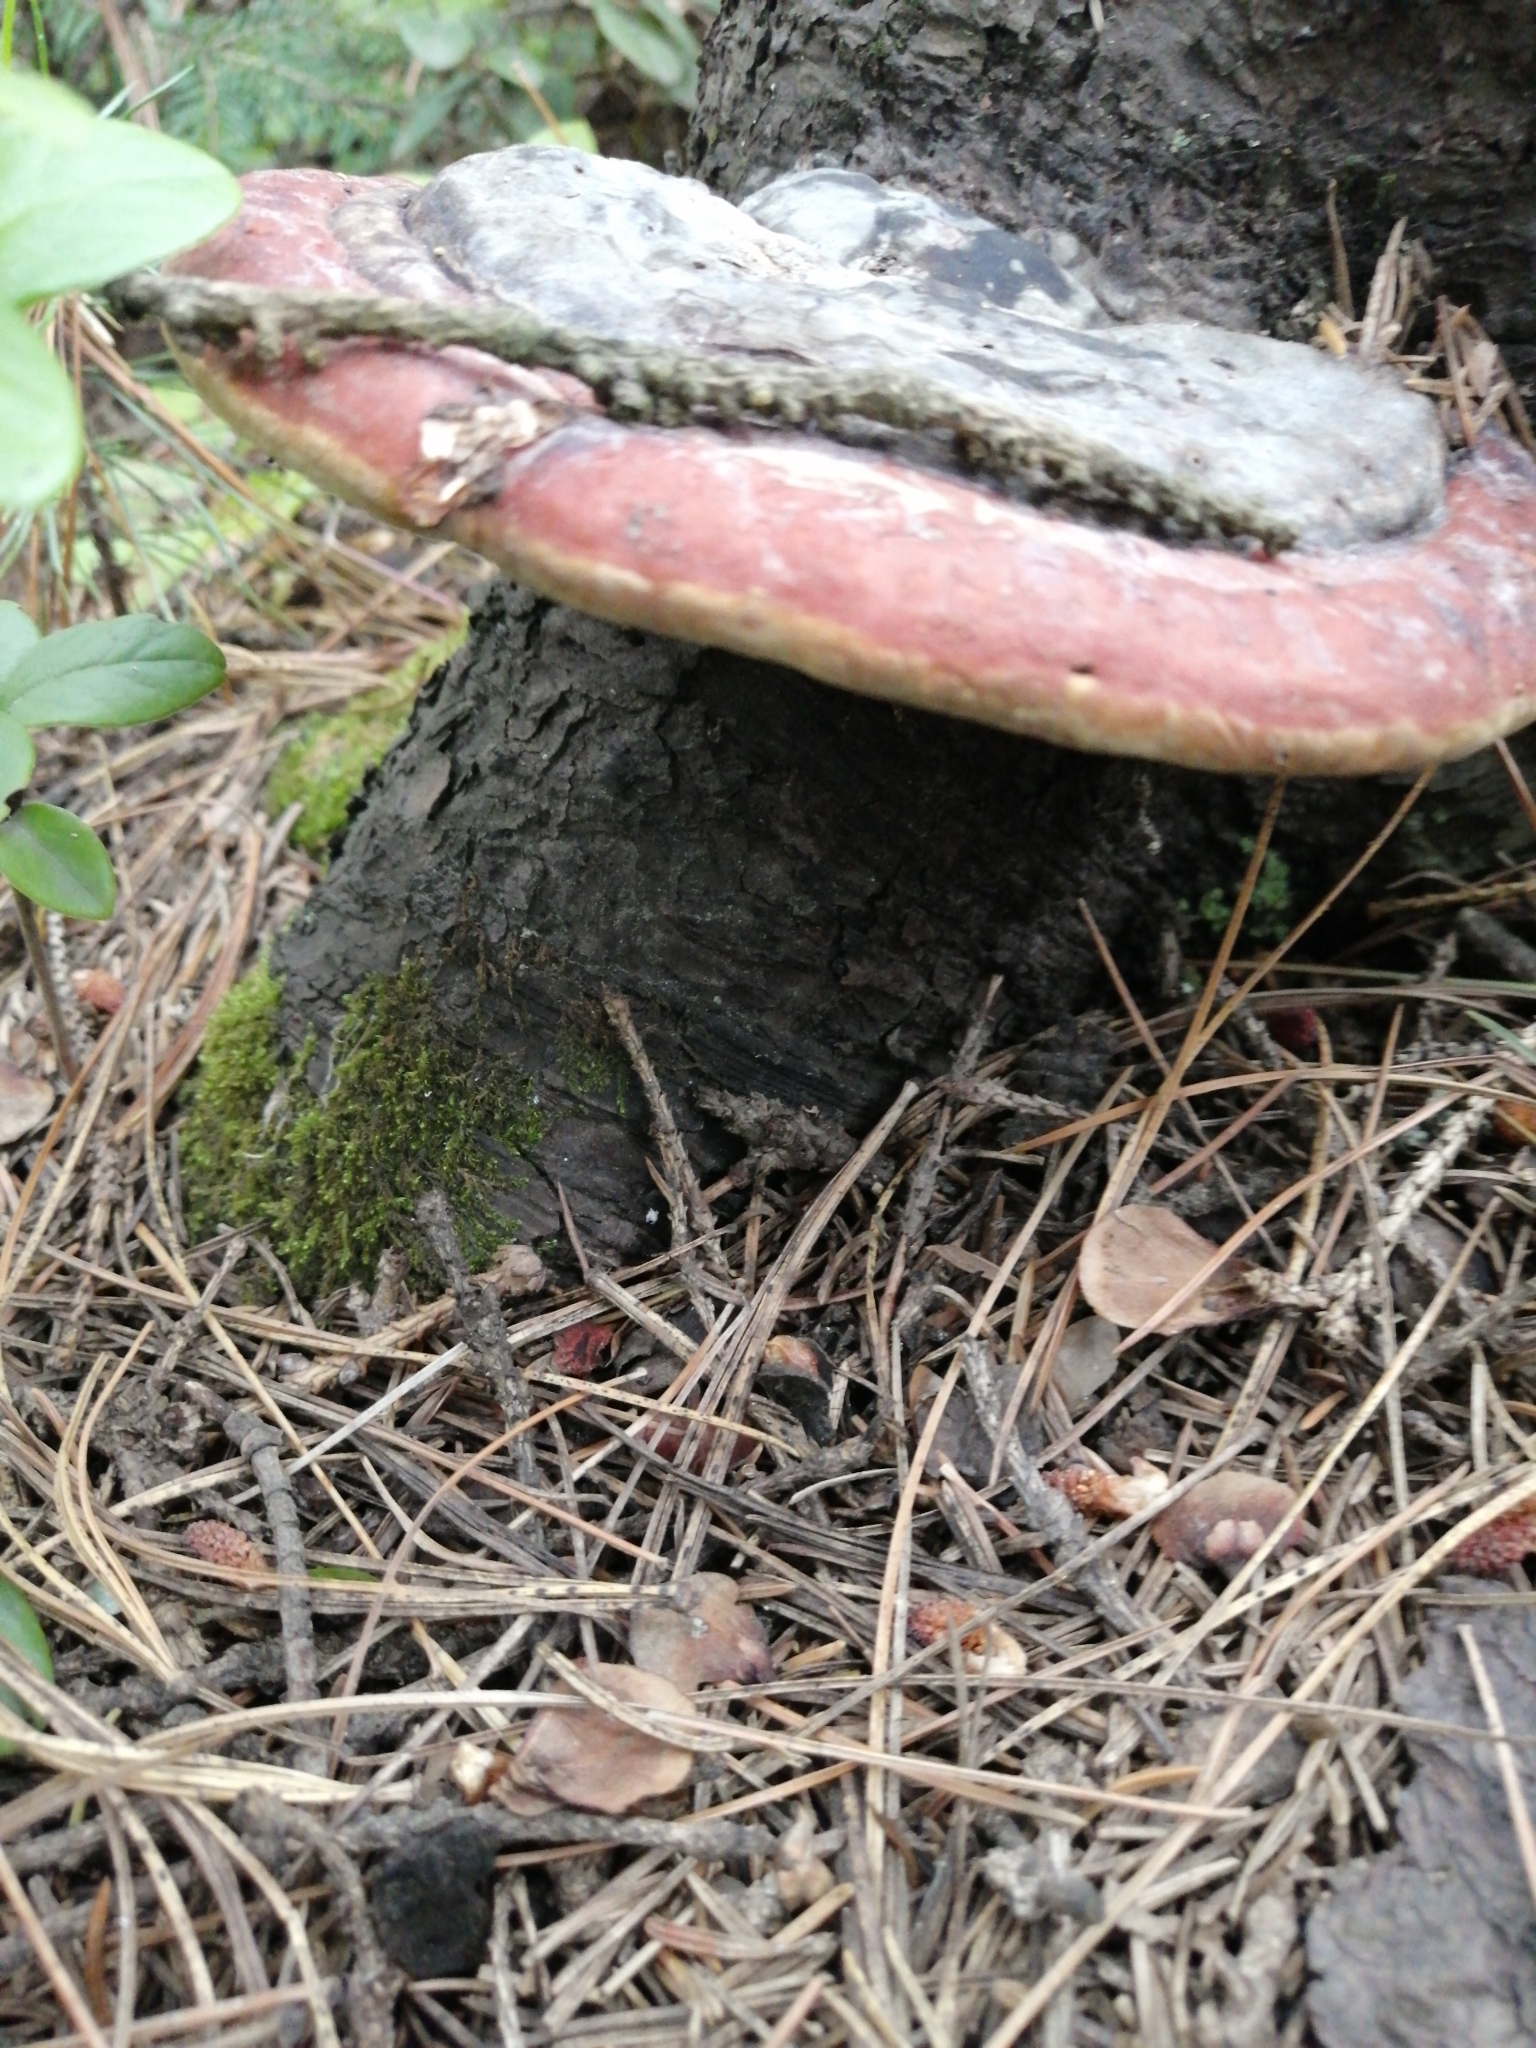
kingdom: Fungi
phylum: Basidiomycota
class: Agaricomycetes
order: Polyporales
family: Fomitopsidaceae
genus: Fomitopsis
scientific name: Fomitopsis pinicola
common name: Red-belted bracket
